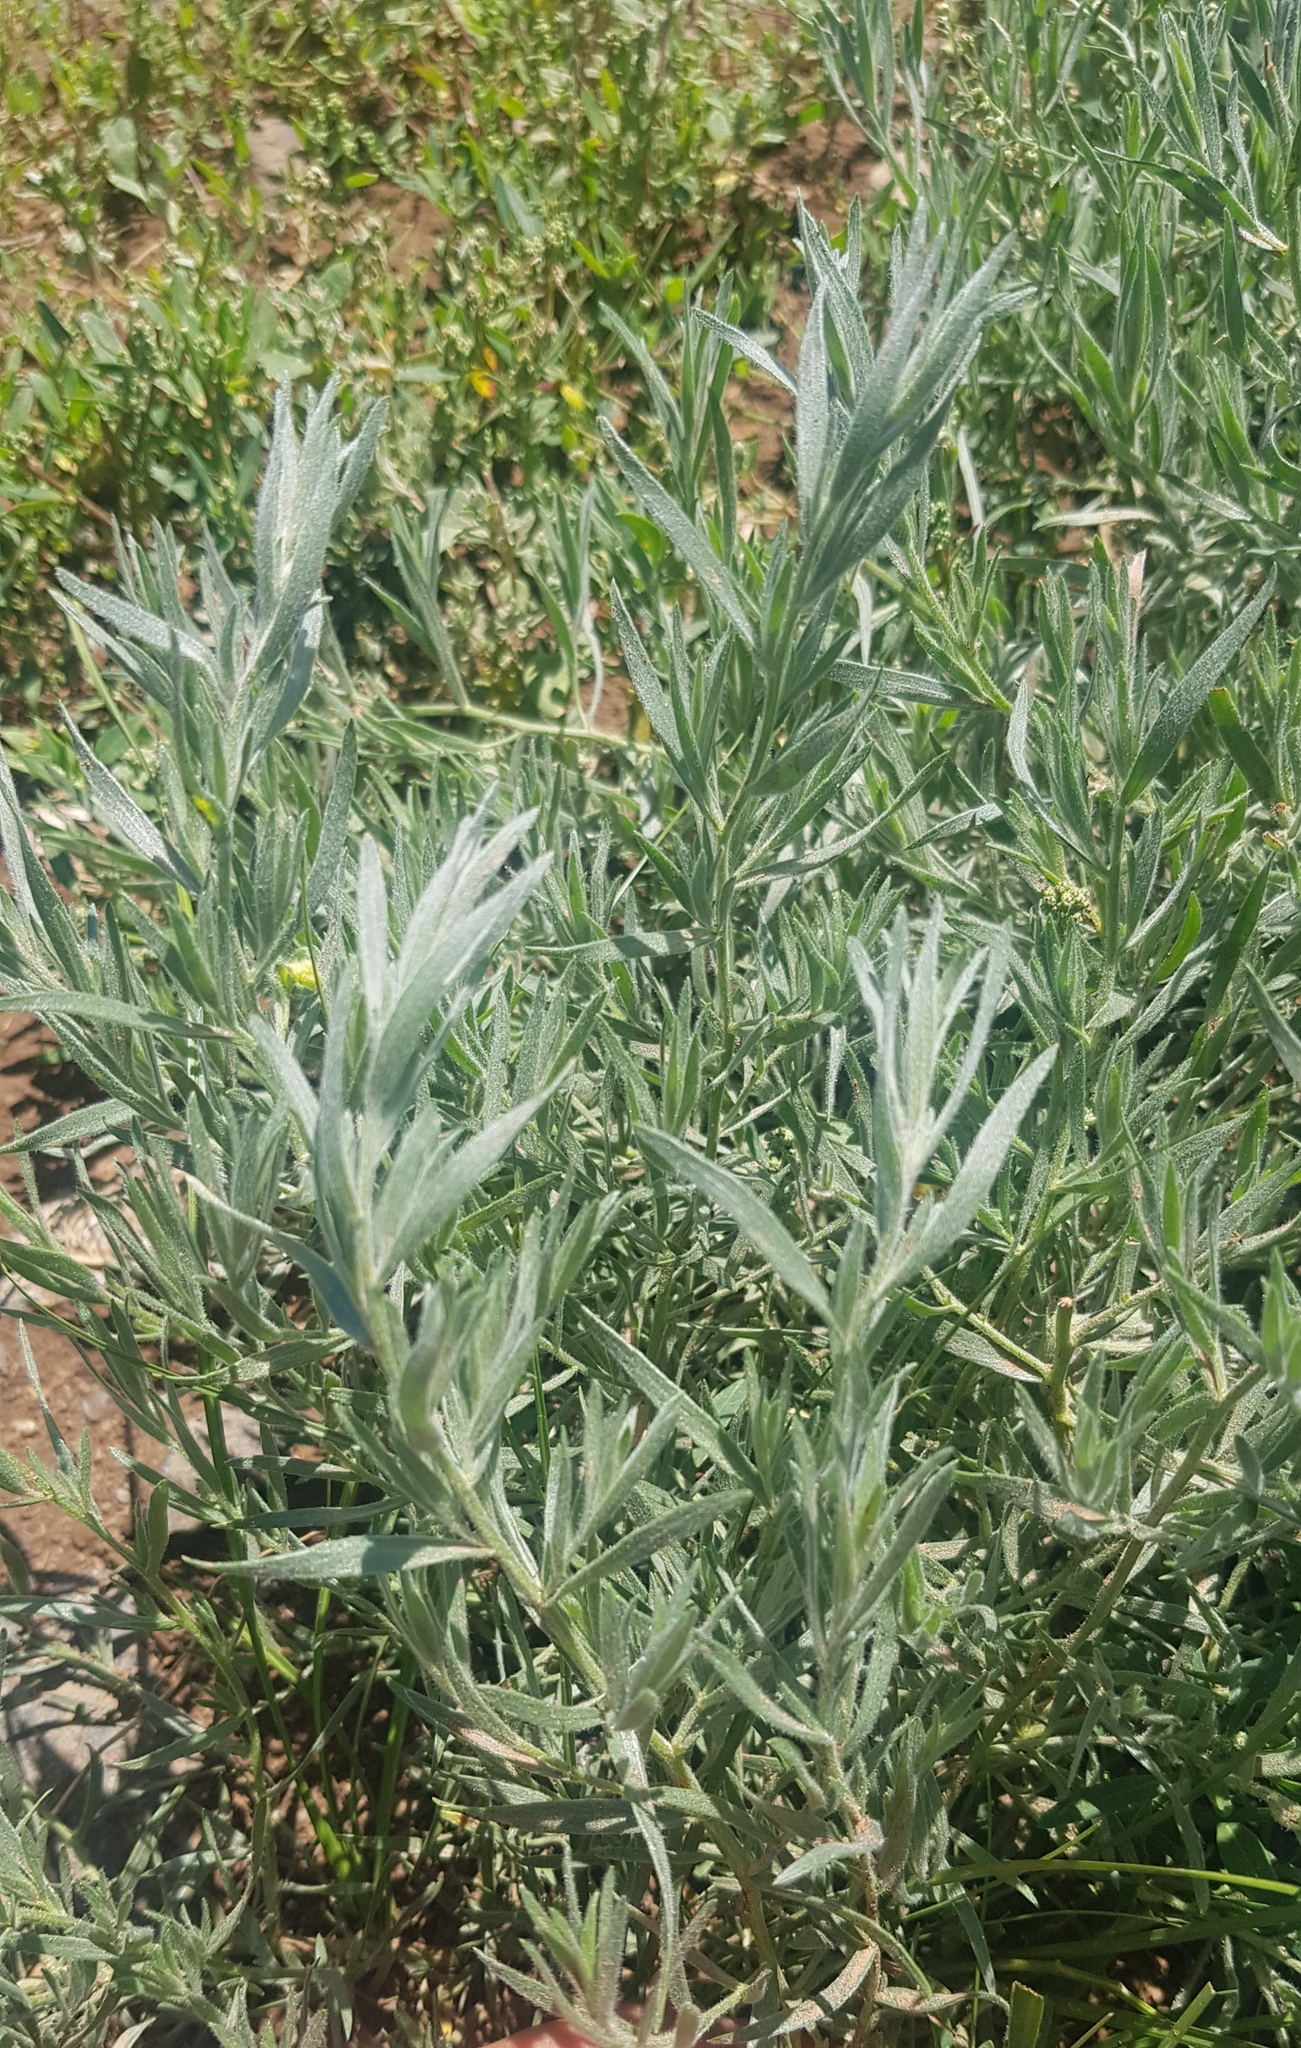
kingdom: Plantae
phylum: Tracheophyta
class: Magnoliopsida
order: Asterales
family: Asteraceae
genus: Artemisia
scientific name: Artemisia glauca
